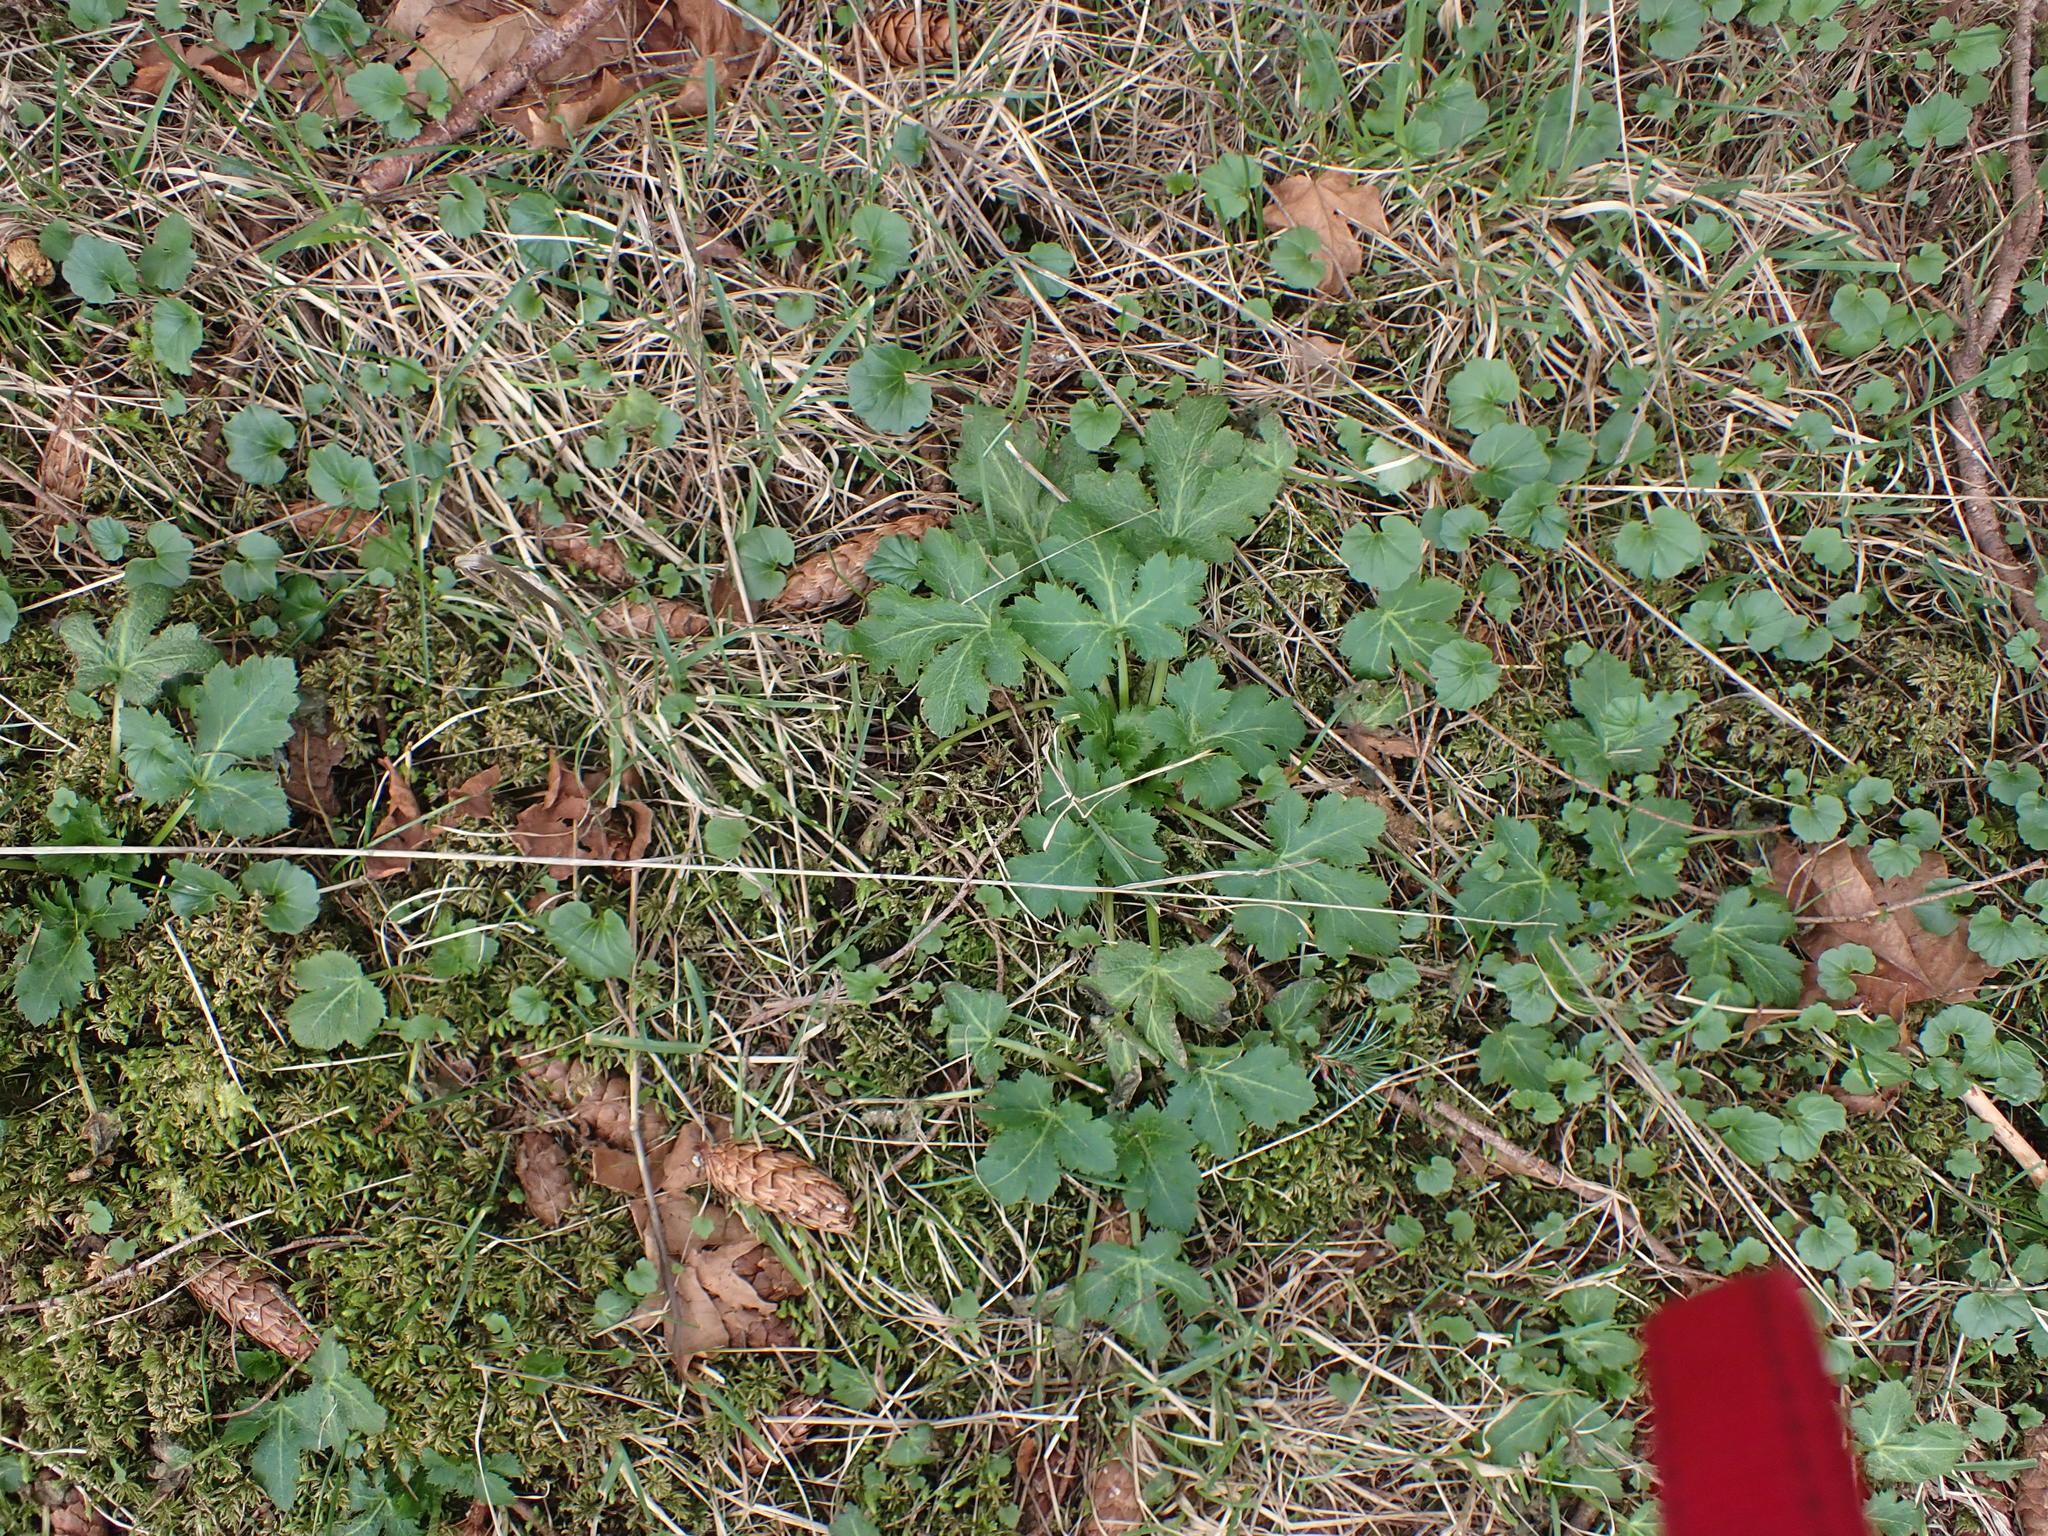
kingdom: Plantae
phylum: Tracheophyta
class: Magnoliopsida
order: Apiales
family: Apiaceae
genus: Sanicula
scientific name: Sanicula crassicaulis
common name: Western snakeroot
